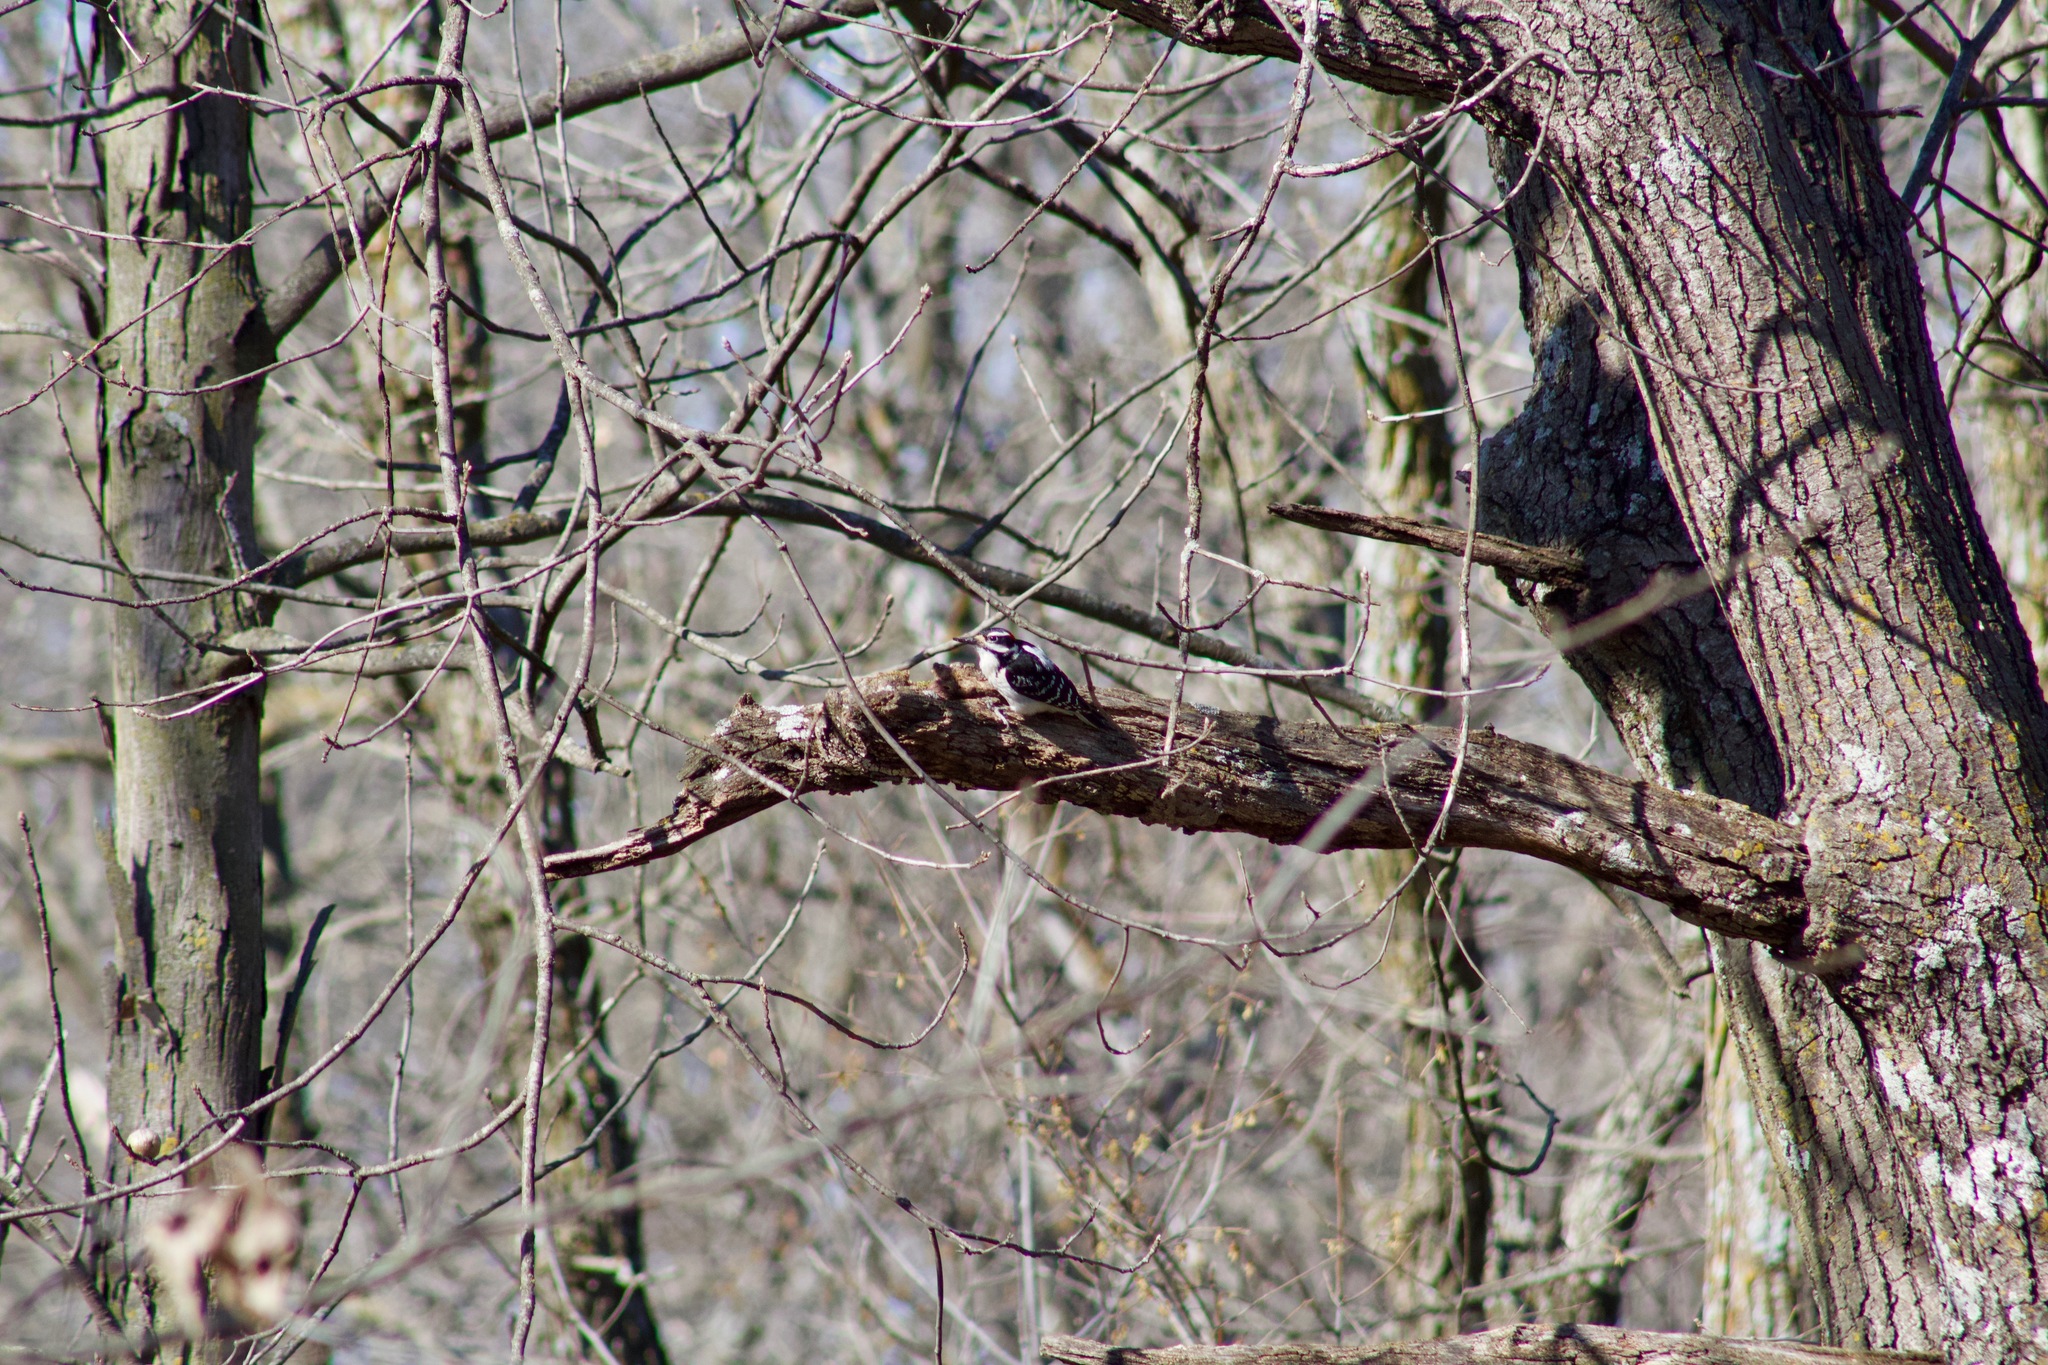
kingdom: Animalia
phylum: Chordata
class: Aves
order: Piciformes
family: Picidae
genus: Leuconotopicus
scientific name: Leuconotopicus villosus
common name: Hairy woodpecker
